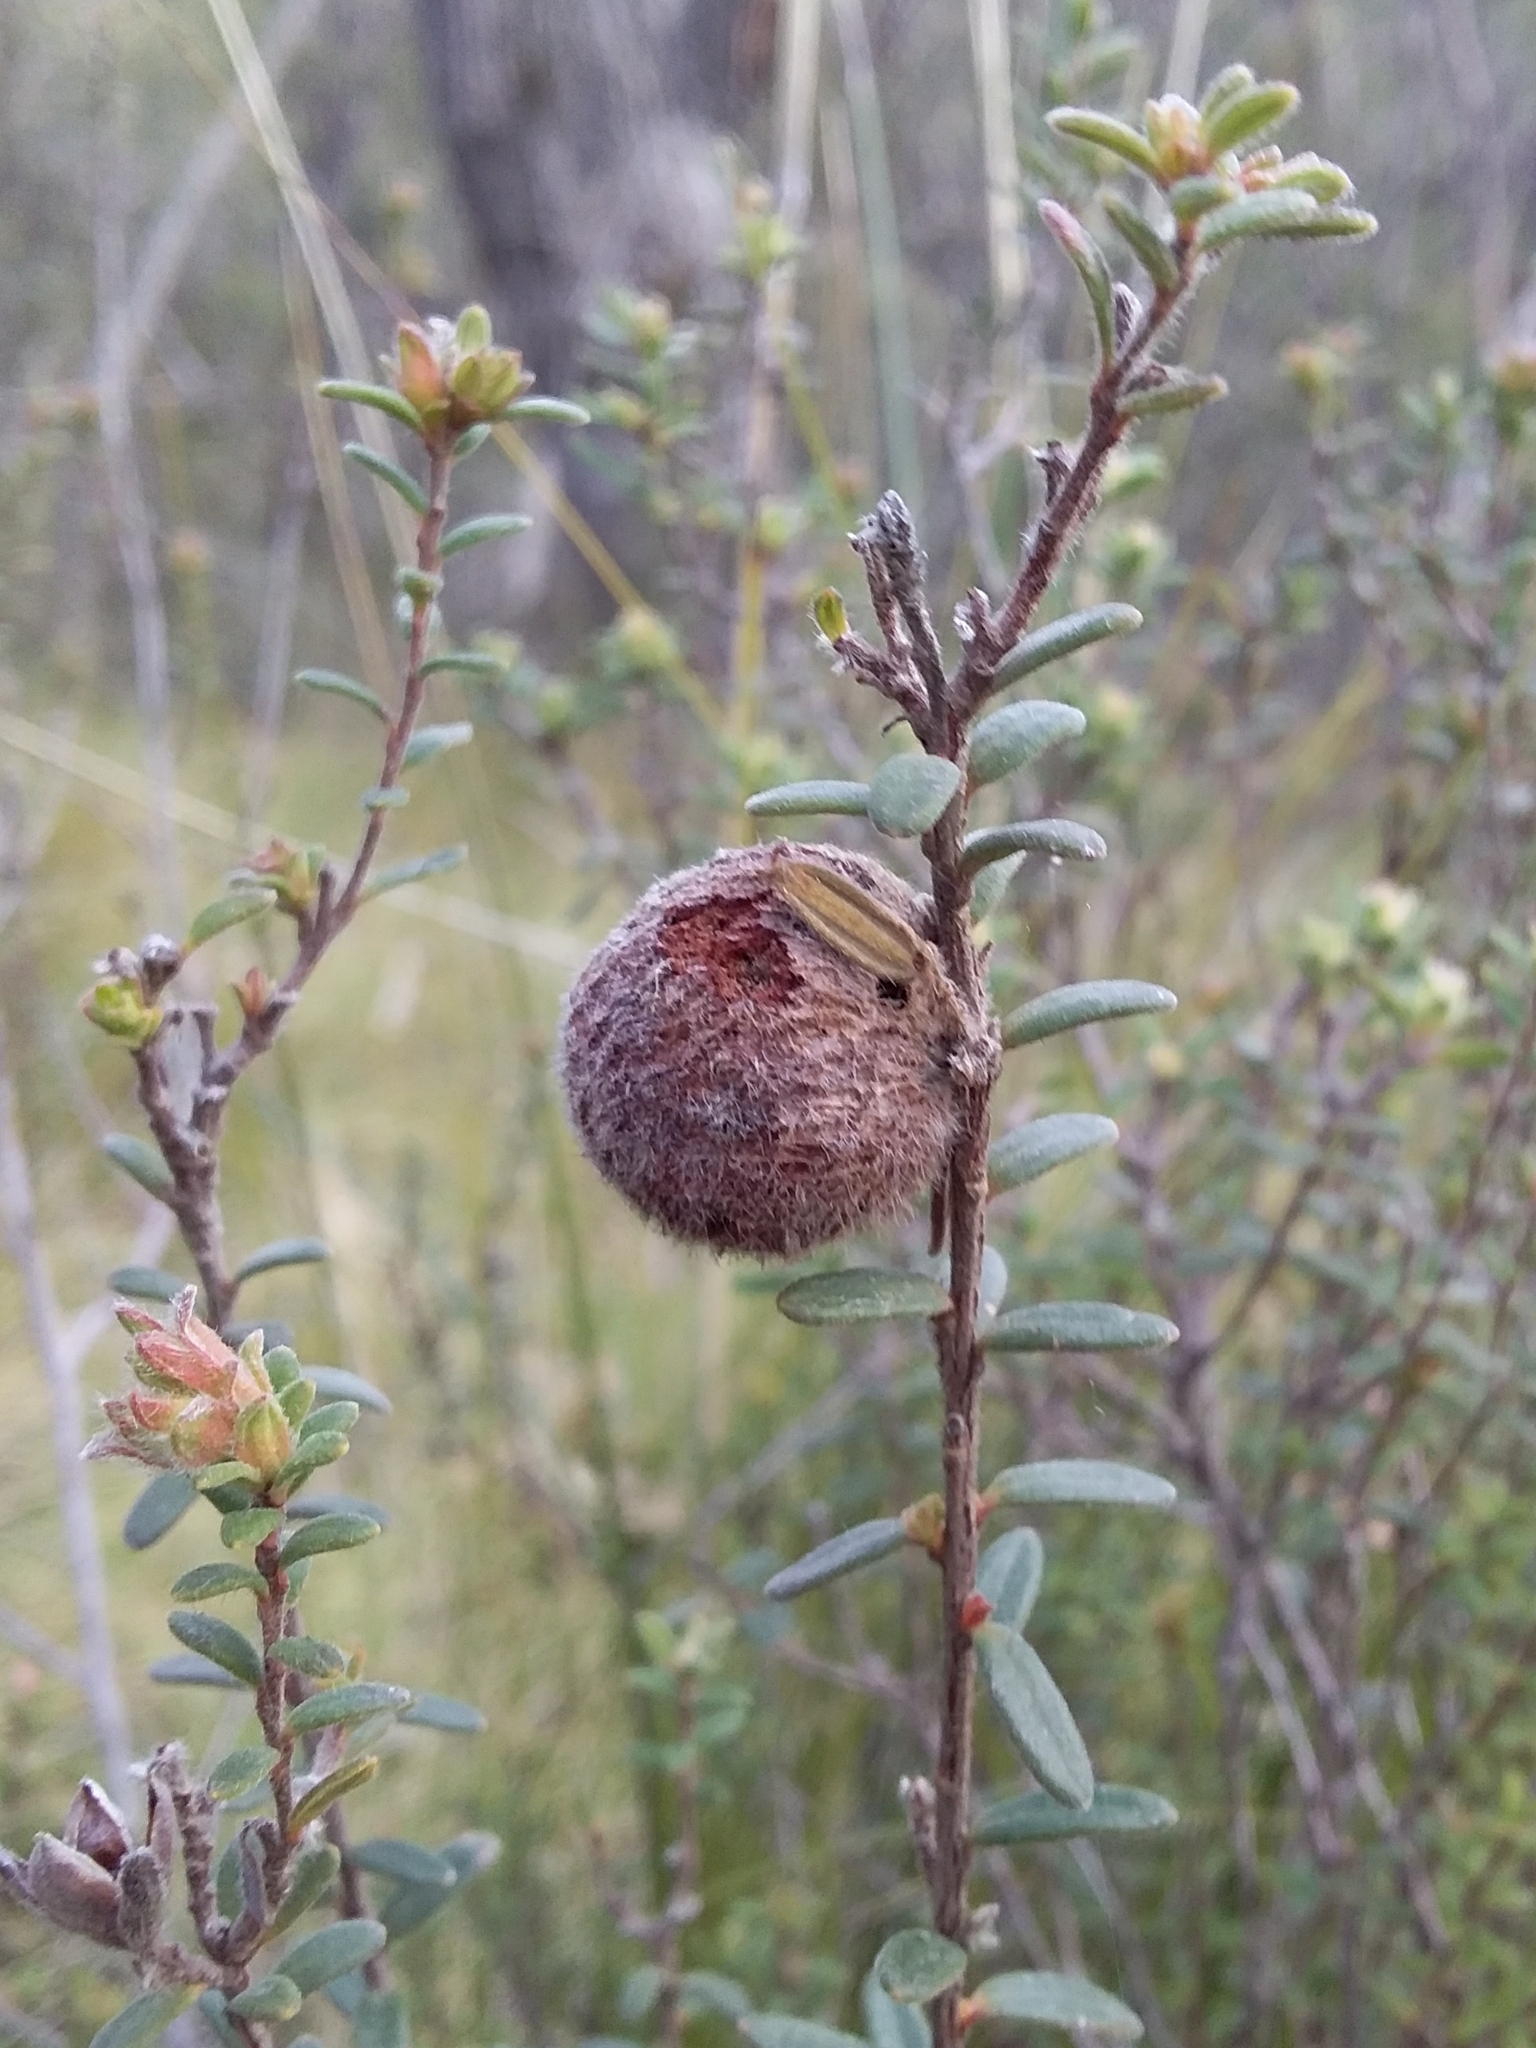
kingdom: Plantae
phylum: Tracheophyta
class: Magnoliopsida
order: Dilleniales
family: Dilleniaceae
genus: Hibbertia
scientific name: Hibbertia crinita
